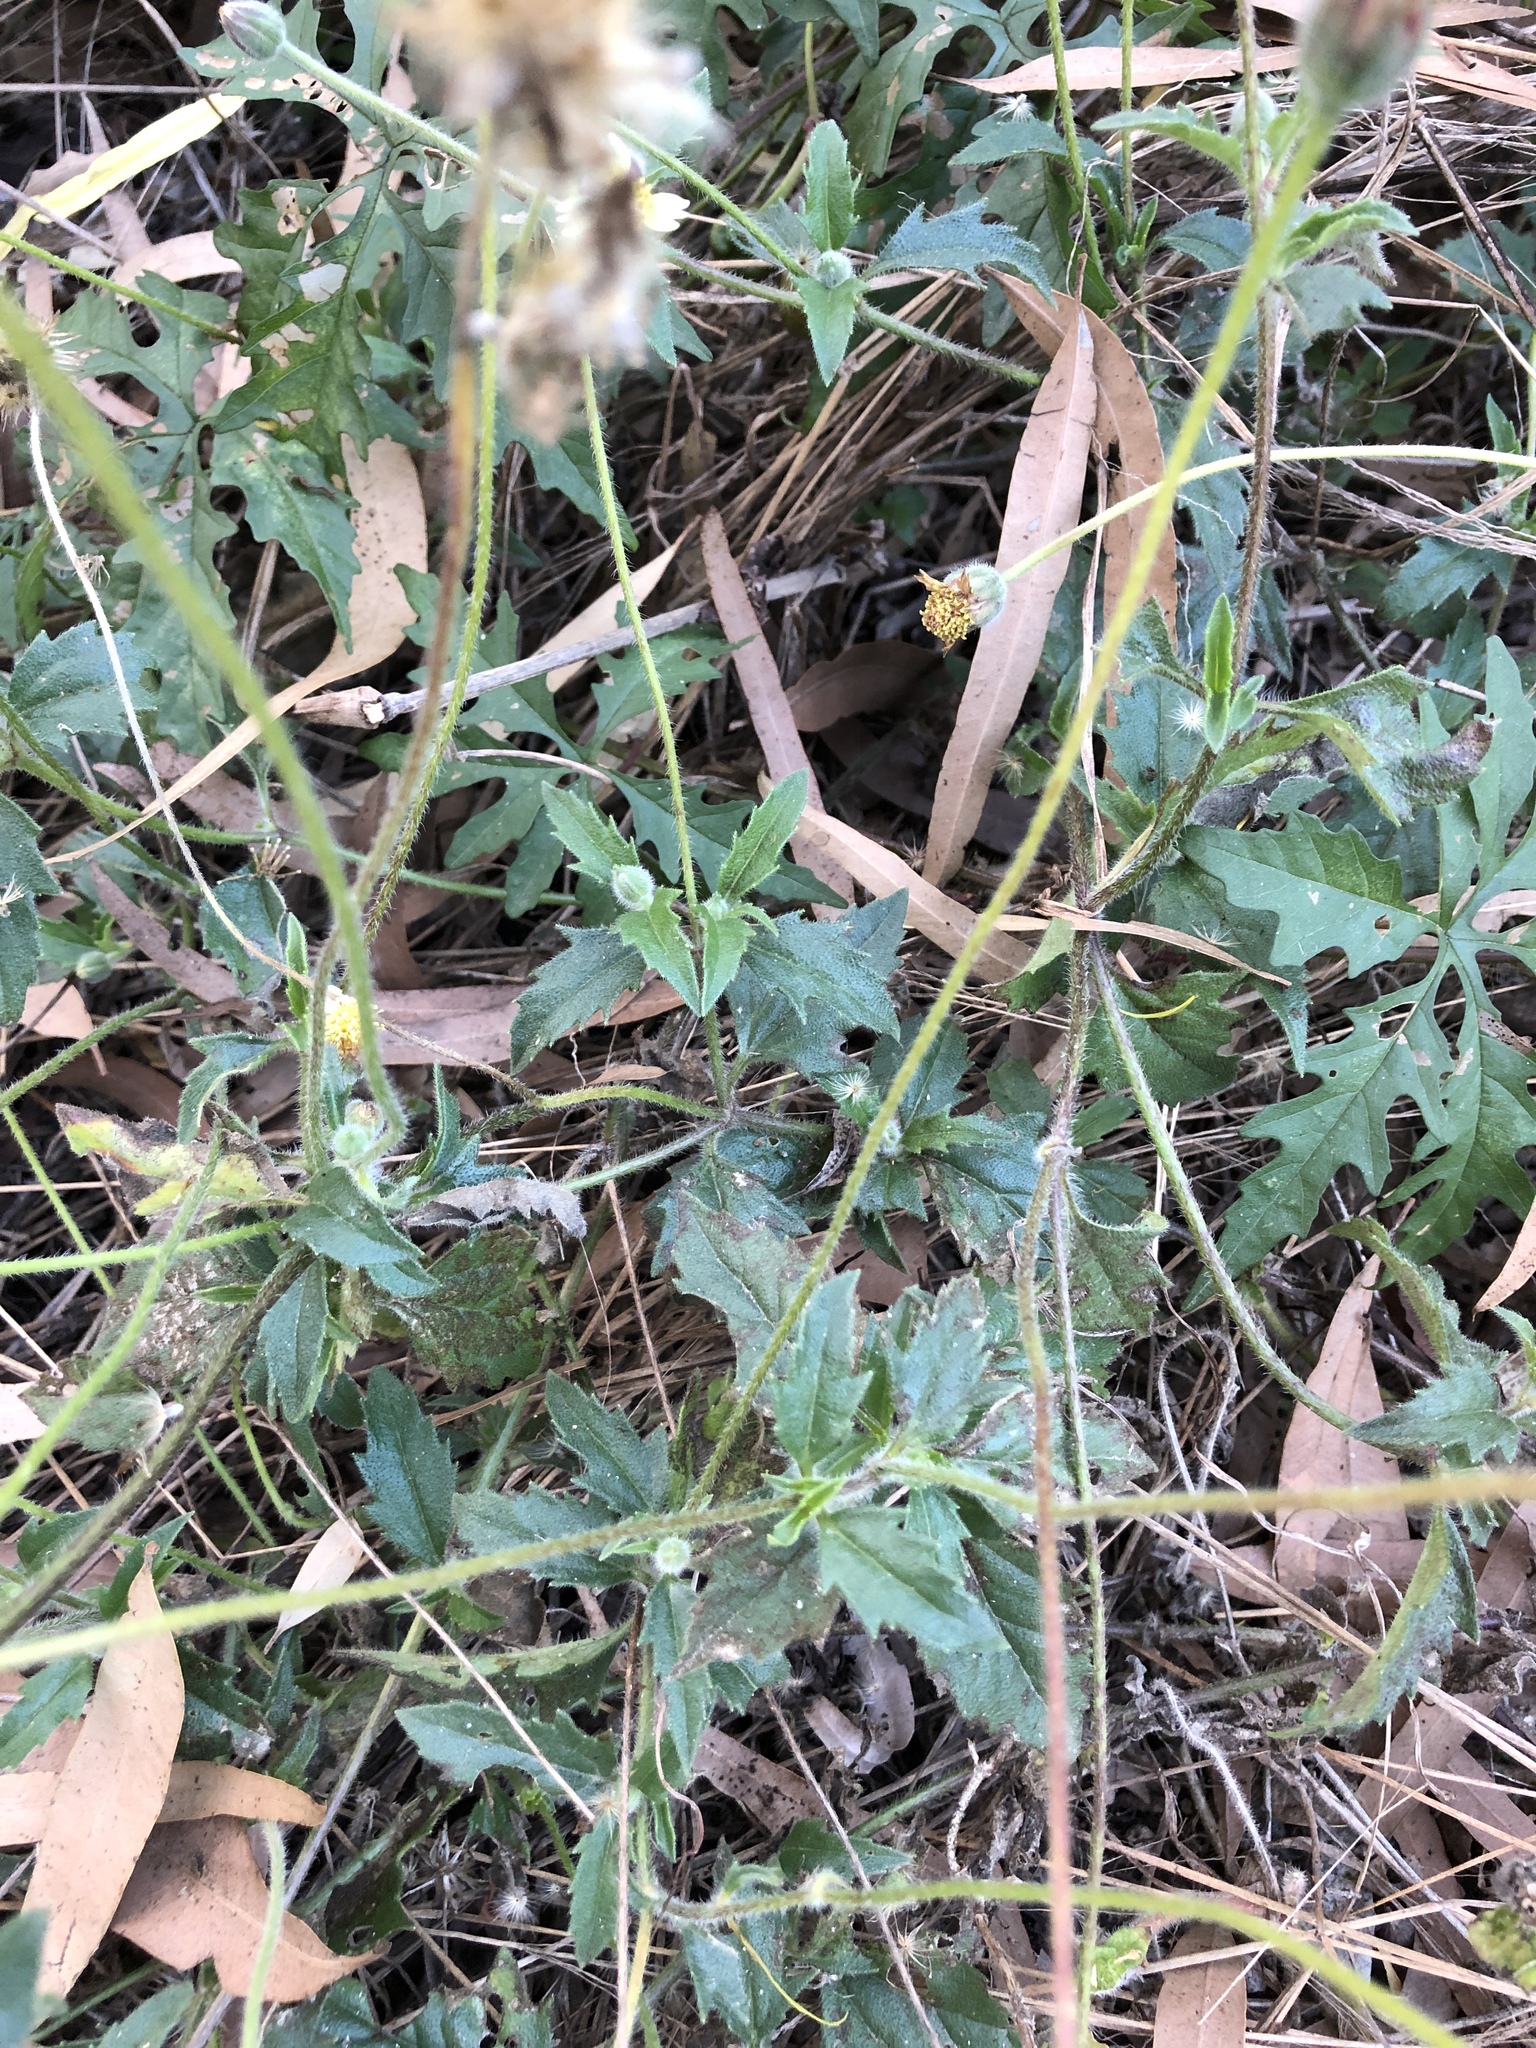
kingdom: Plantae
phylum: Tracheophyta
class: Magnoliopsida
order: Asterales
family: Asteraceae
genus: Tridax
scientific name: Tridax procumbens
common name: Coatbuttons
